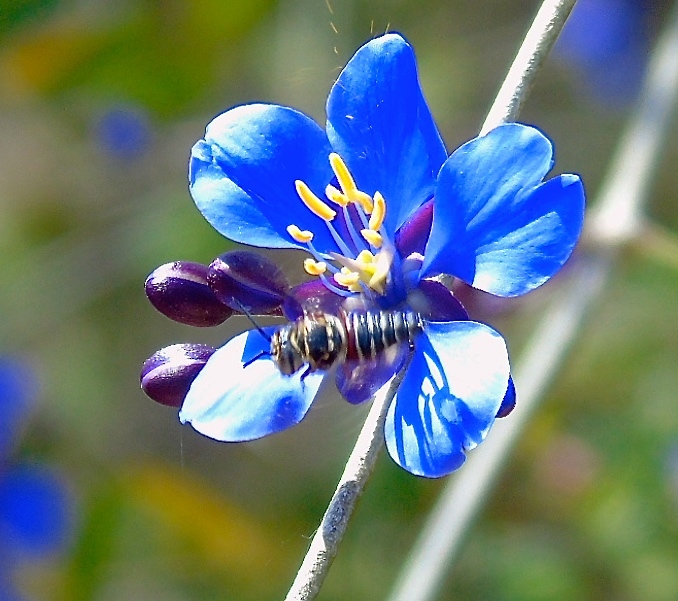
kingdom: Animalia
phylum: Arthropoda
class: Insecta
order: Hymenoptera
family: Megachilidae
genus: Coelioxys
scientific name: Coelioxys
